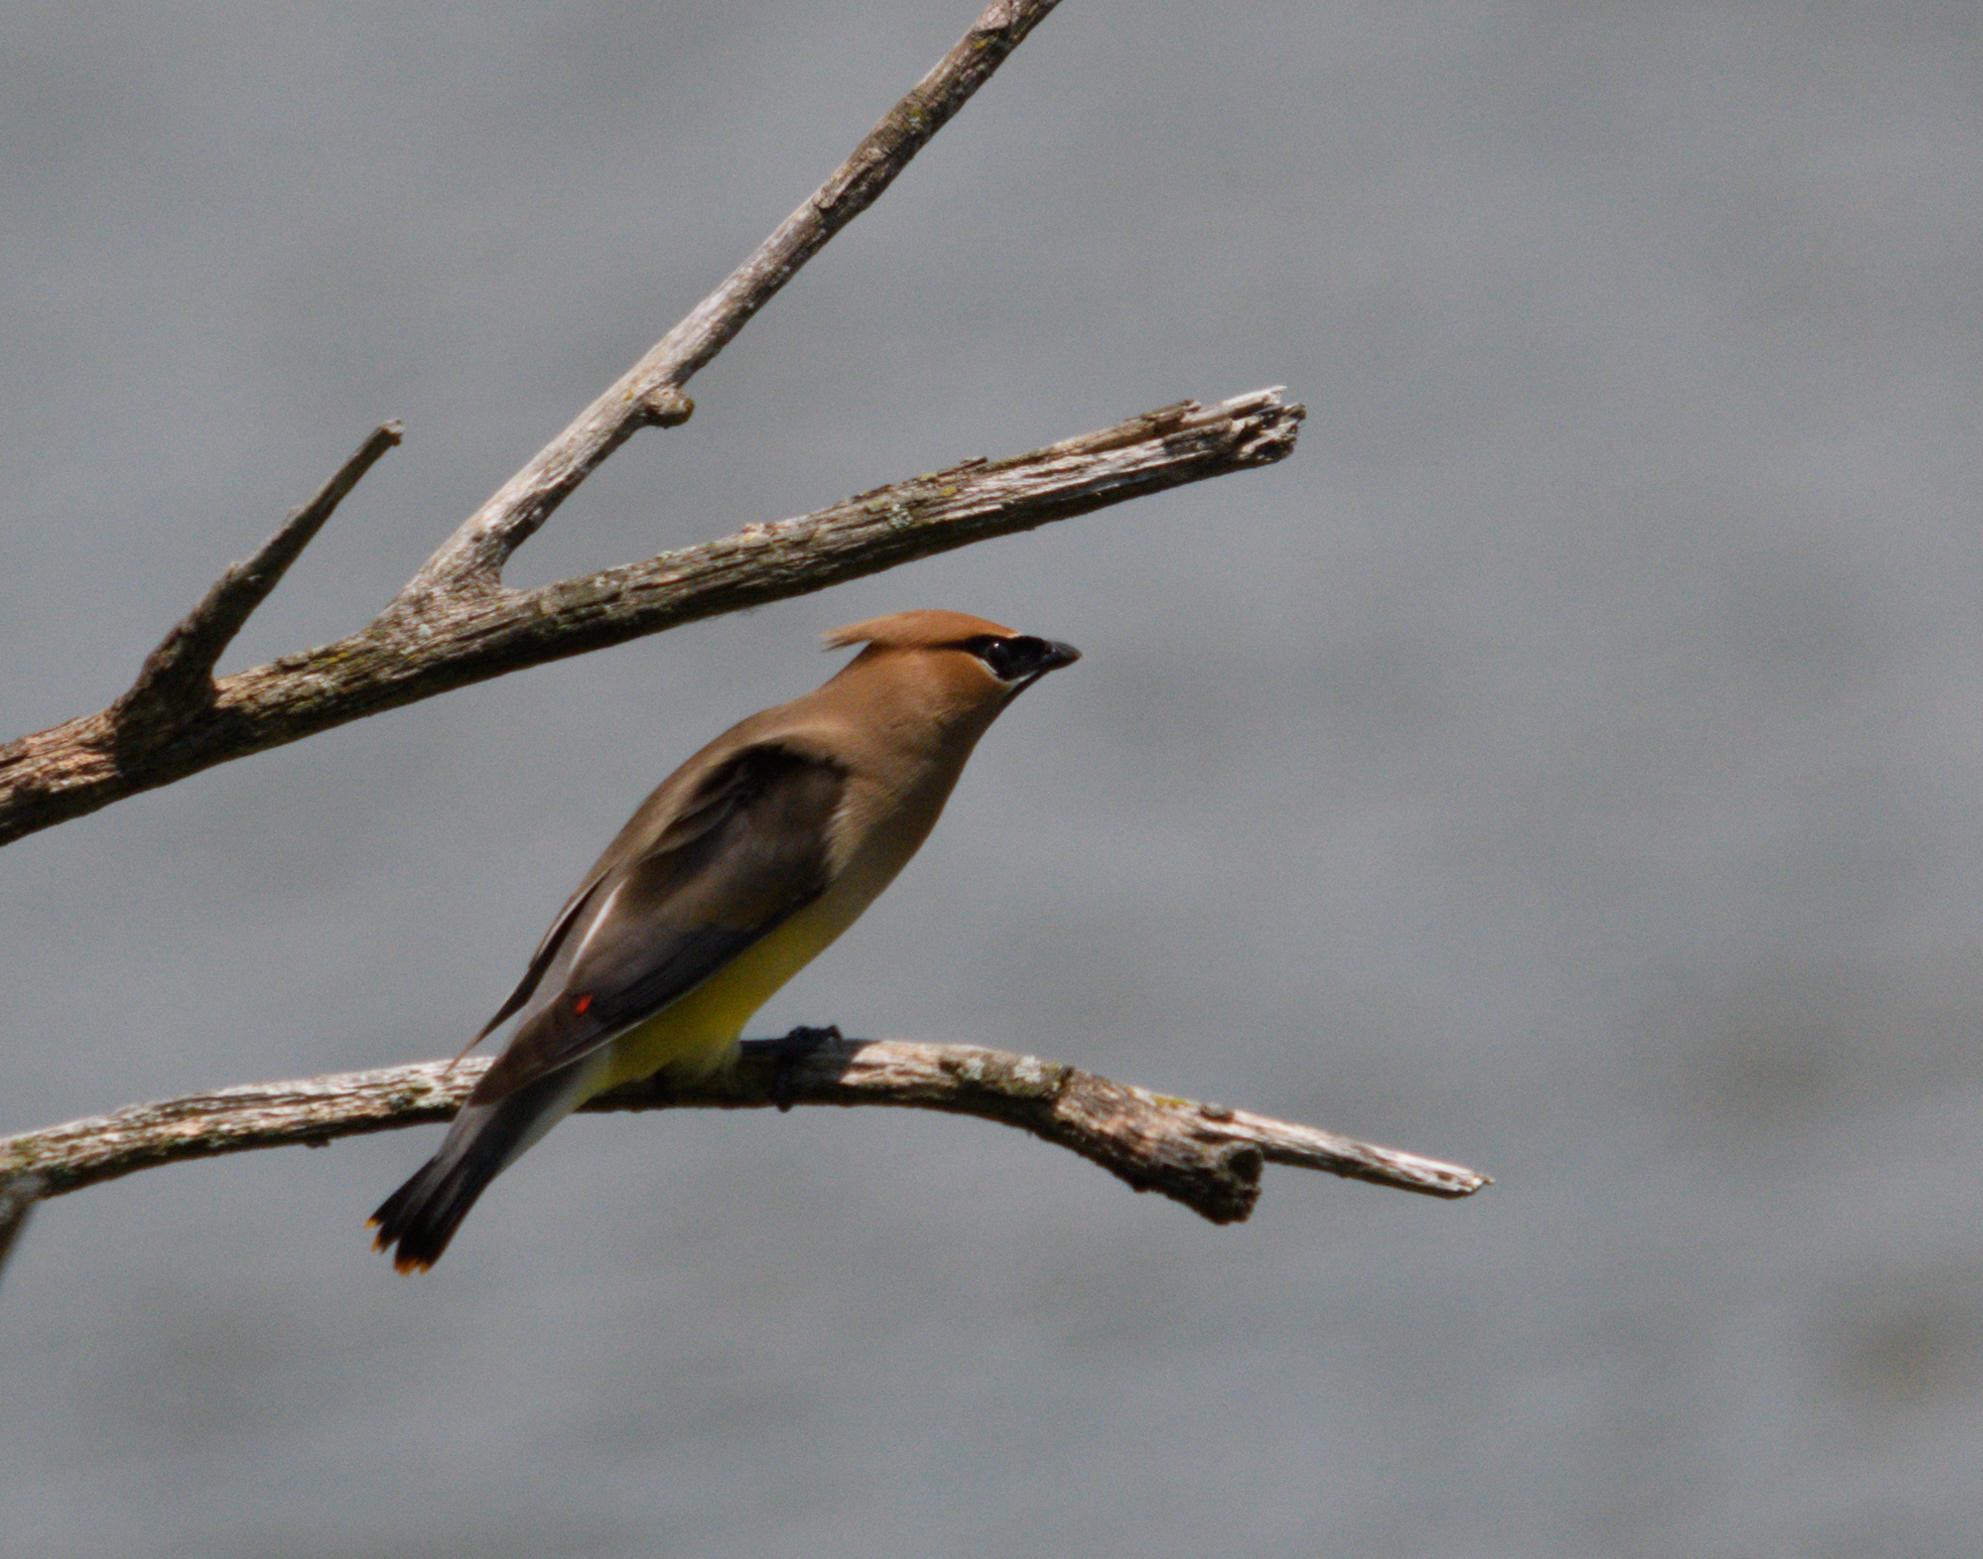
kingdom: Animalia
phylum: Chordata
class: Aves
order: Passeriformes
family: Bombycillidae
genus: Bombycilla
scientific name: Bombycilla cedrorum
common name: Cedar waxwing
